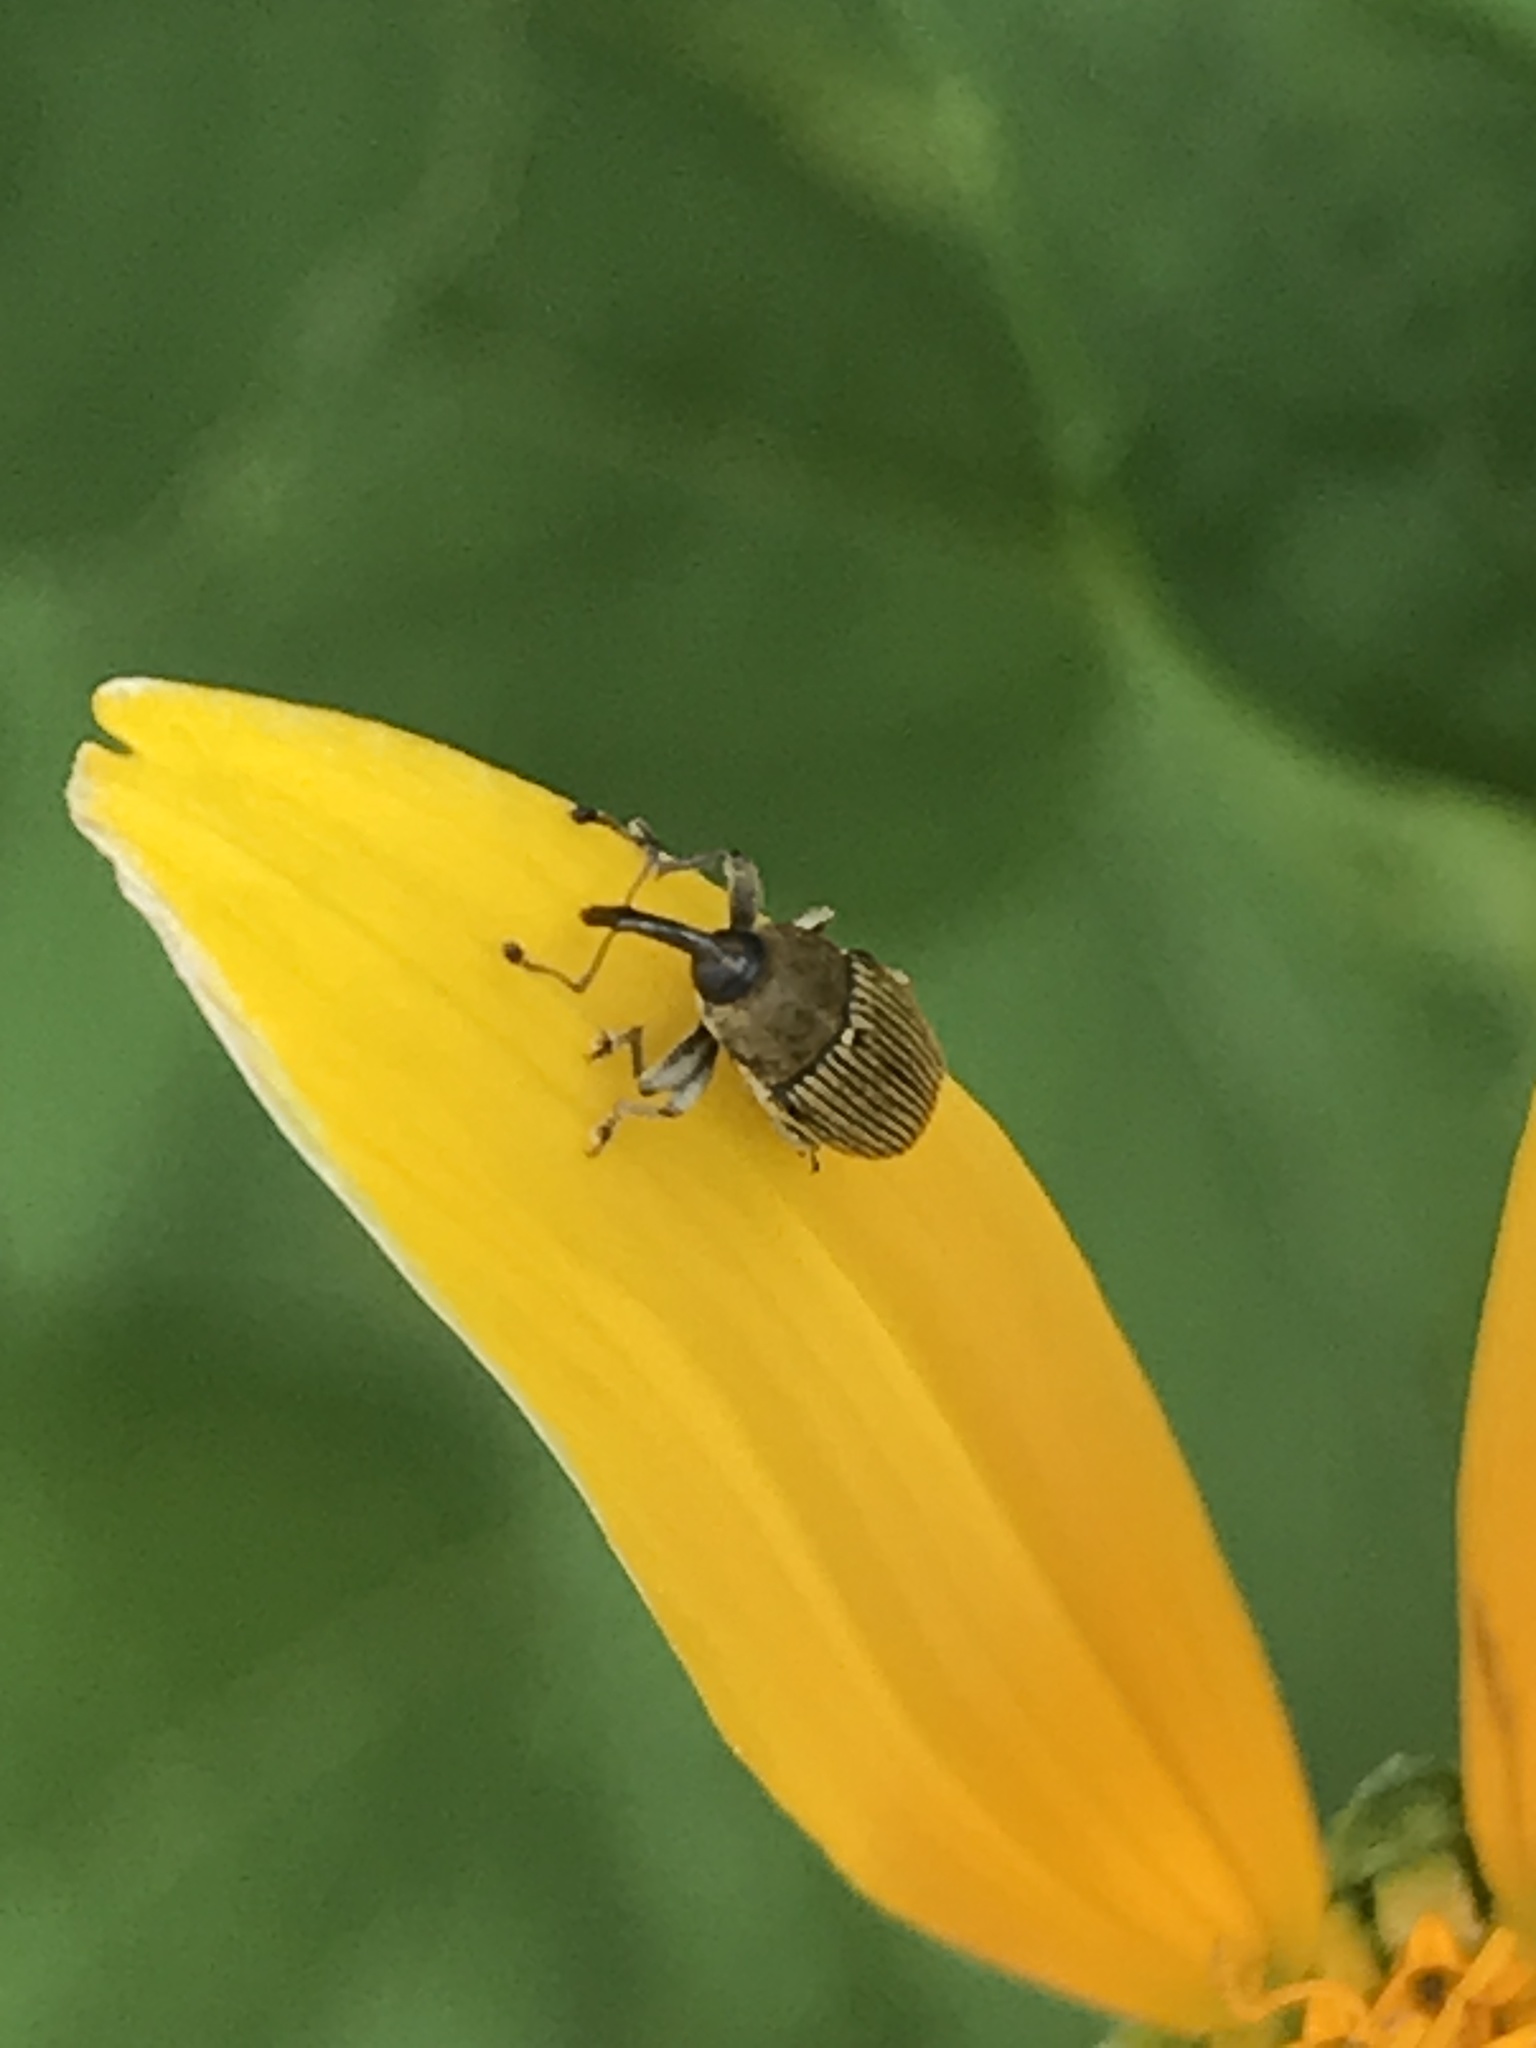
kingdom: Animalia
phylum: Arthropoda
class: Insecta
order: Coleoptera
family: Curculionidae
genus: Odontocorynus
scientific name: Odontocorynus salebrosus
